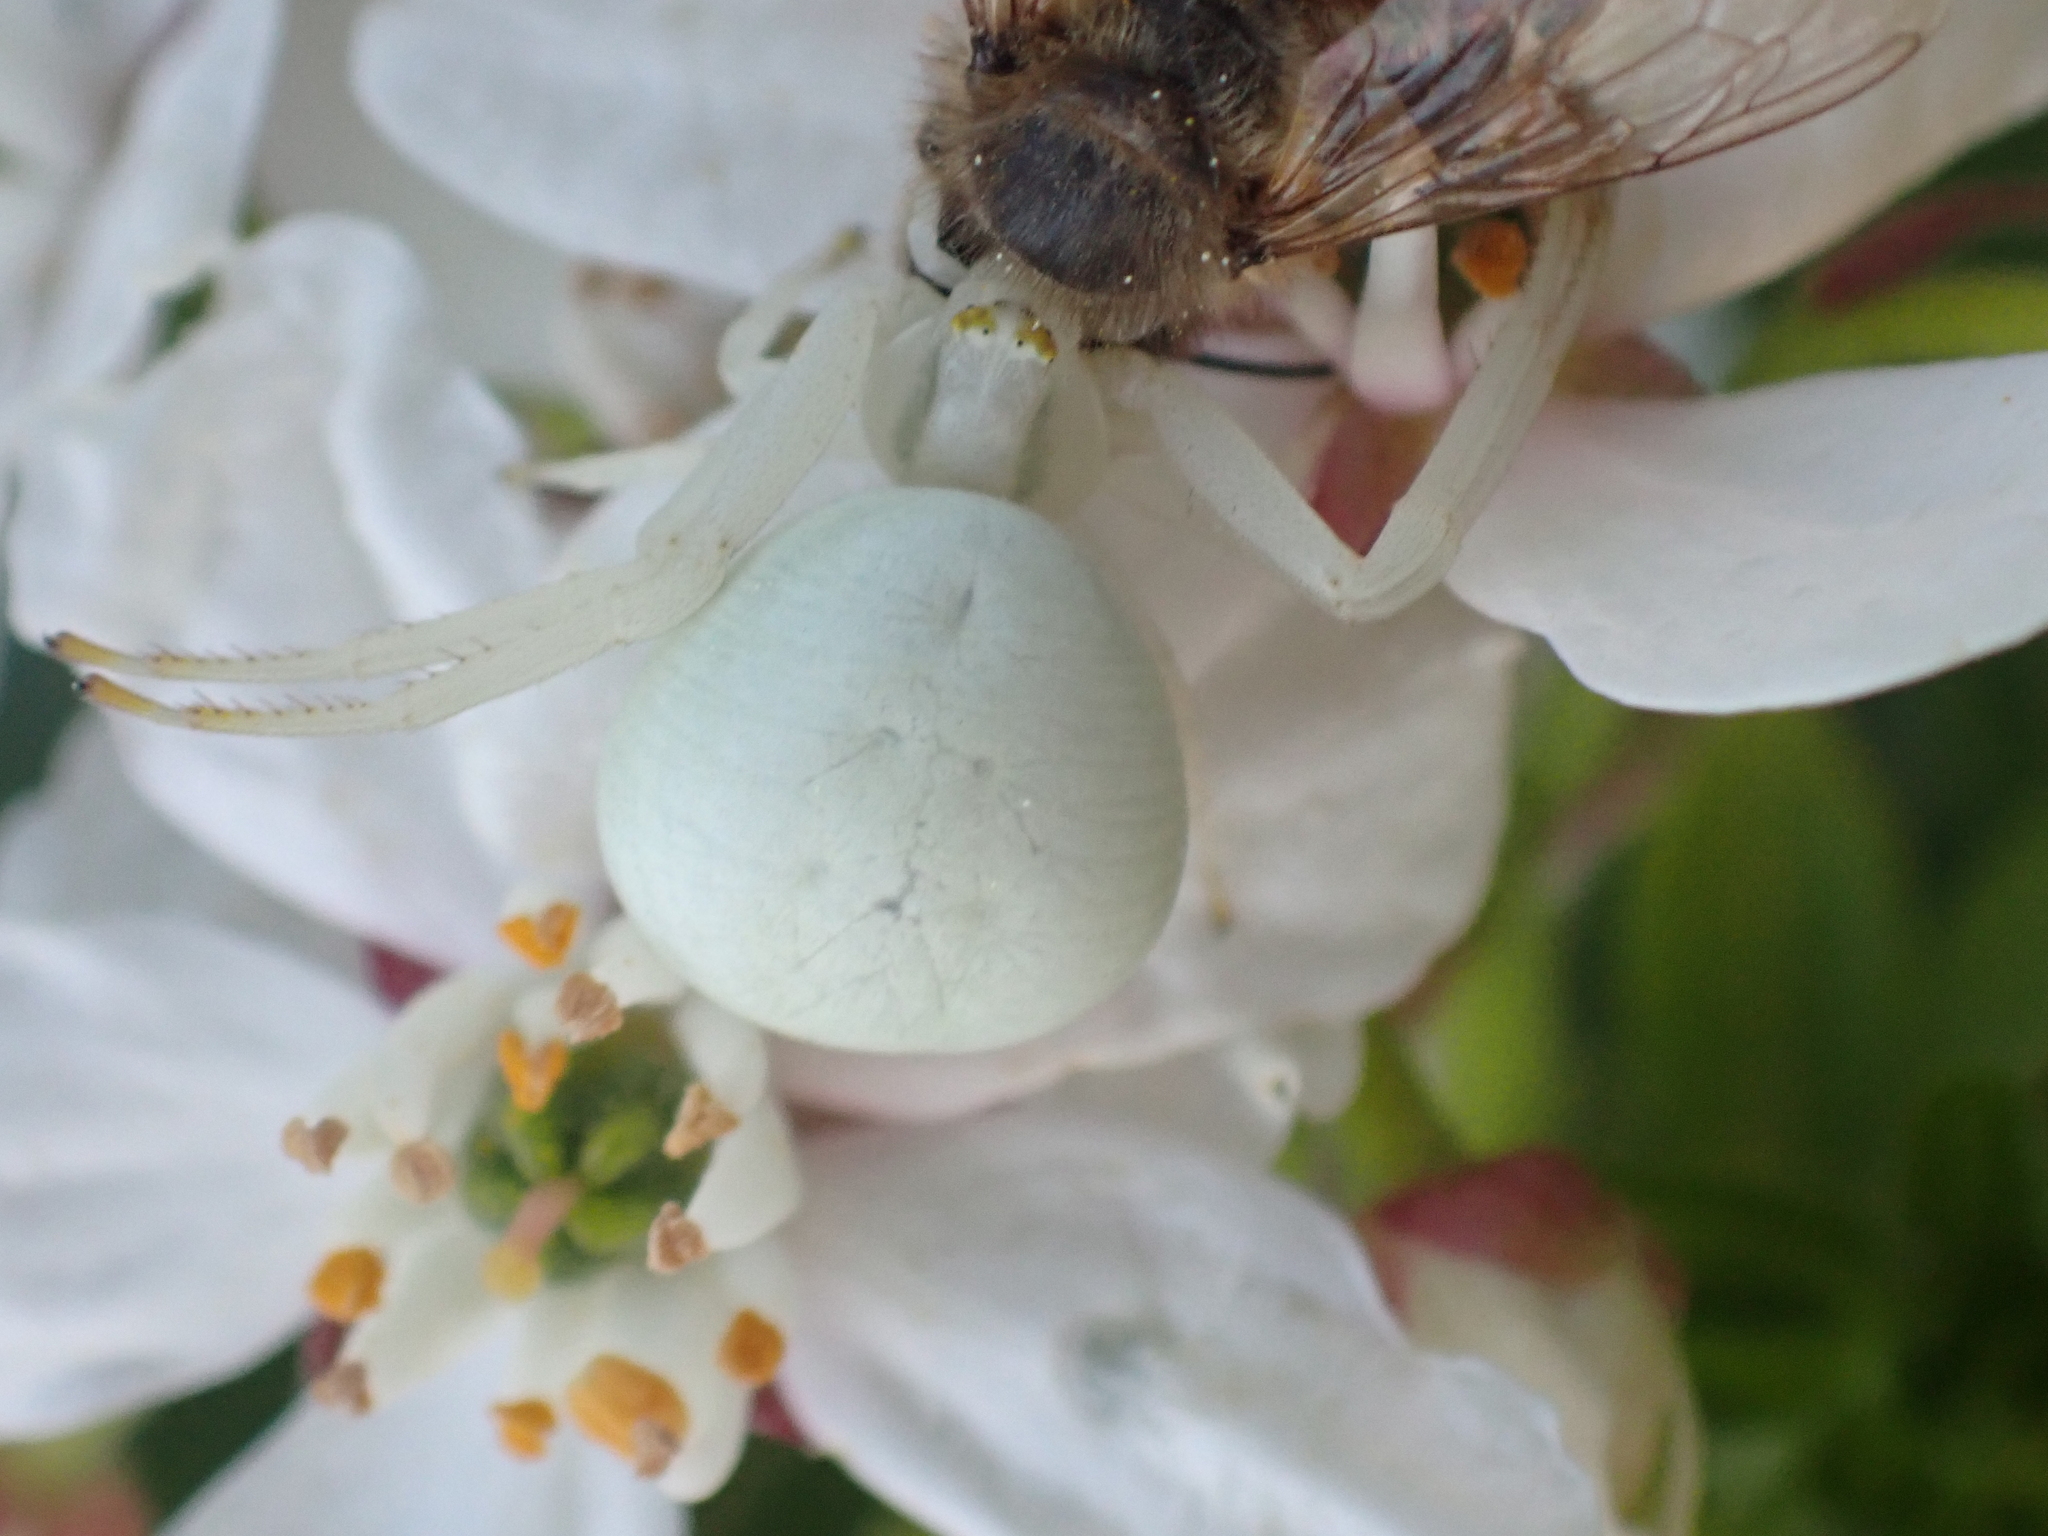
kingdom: Animalia
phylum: Arthropoda
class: Arachnida
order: Araneae
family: Thomisidae
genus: Misumena
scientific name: Misumena vatia
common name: Goldenrod crab spider
